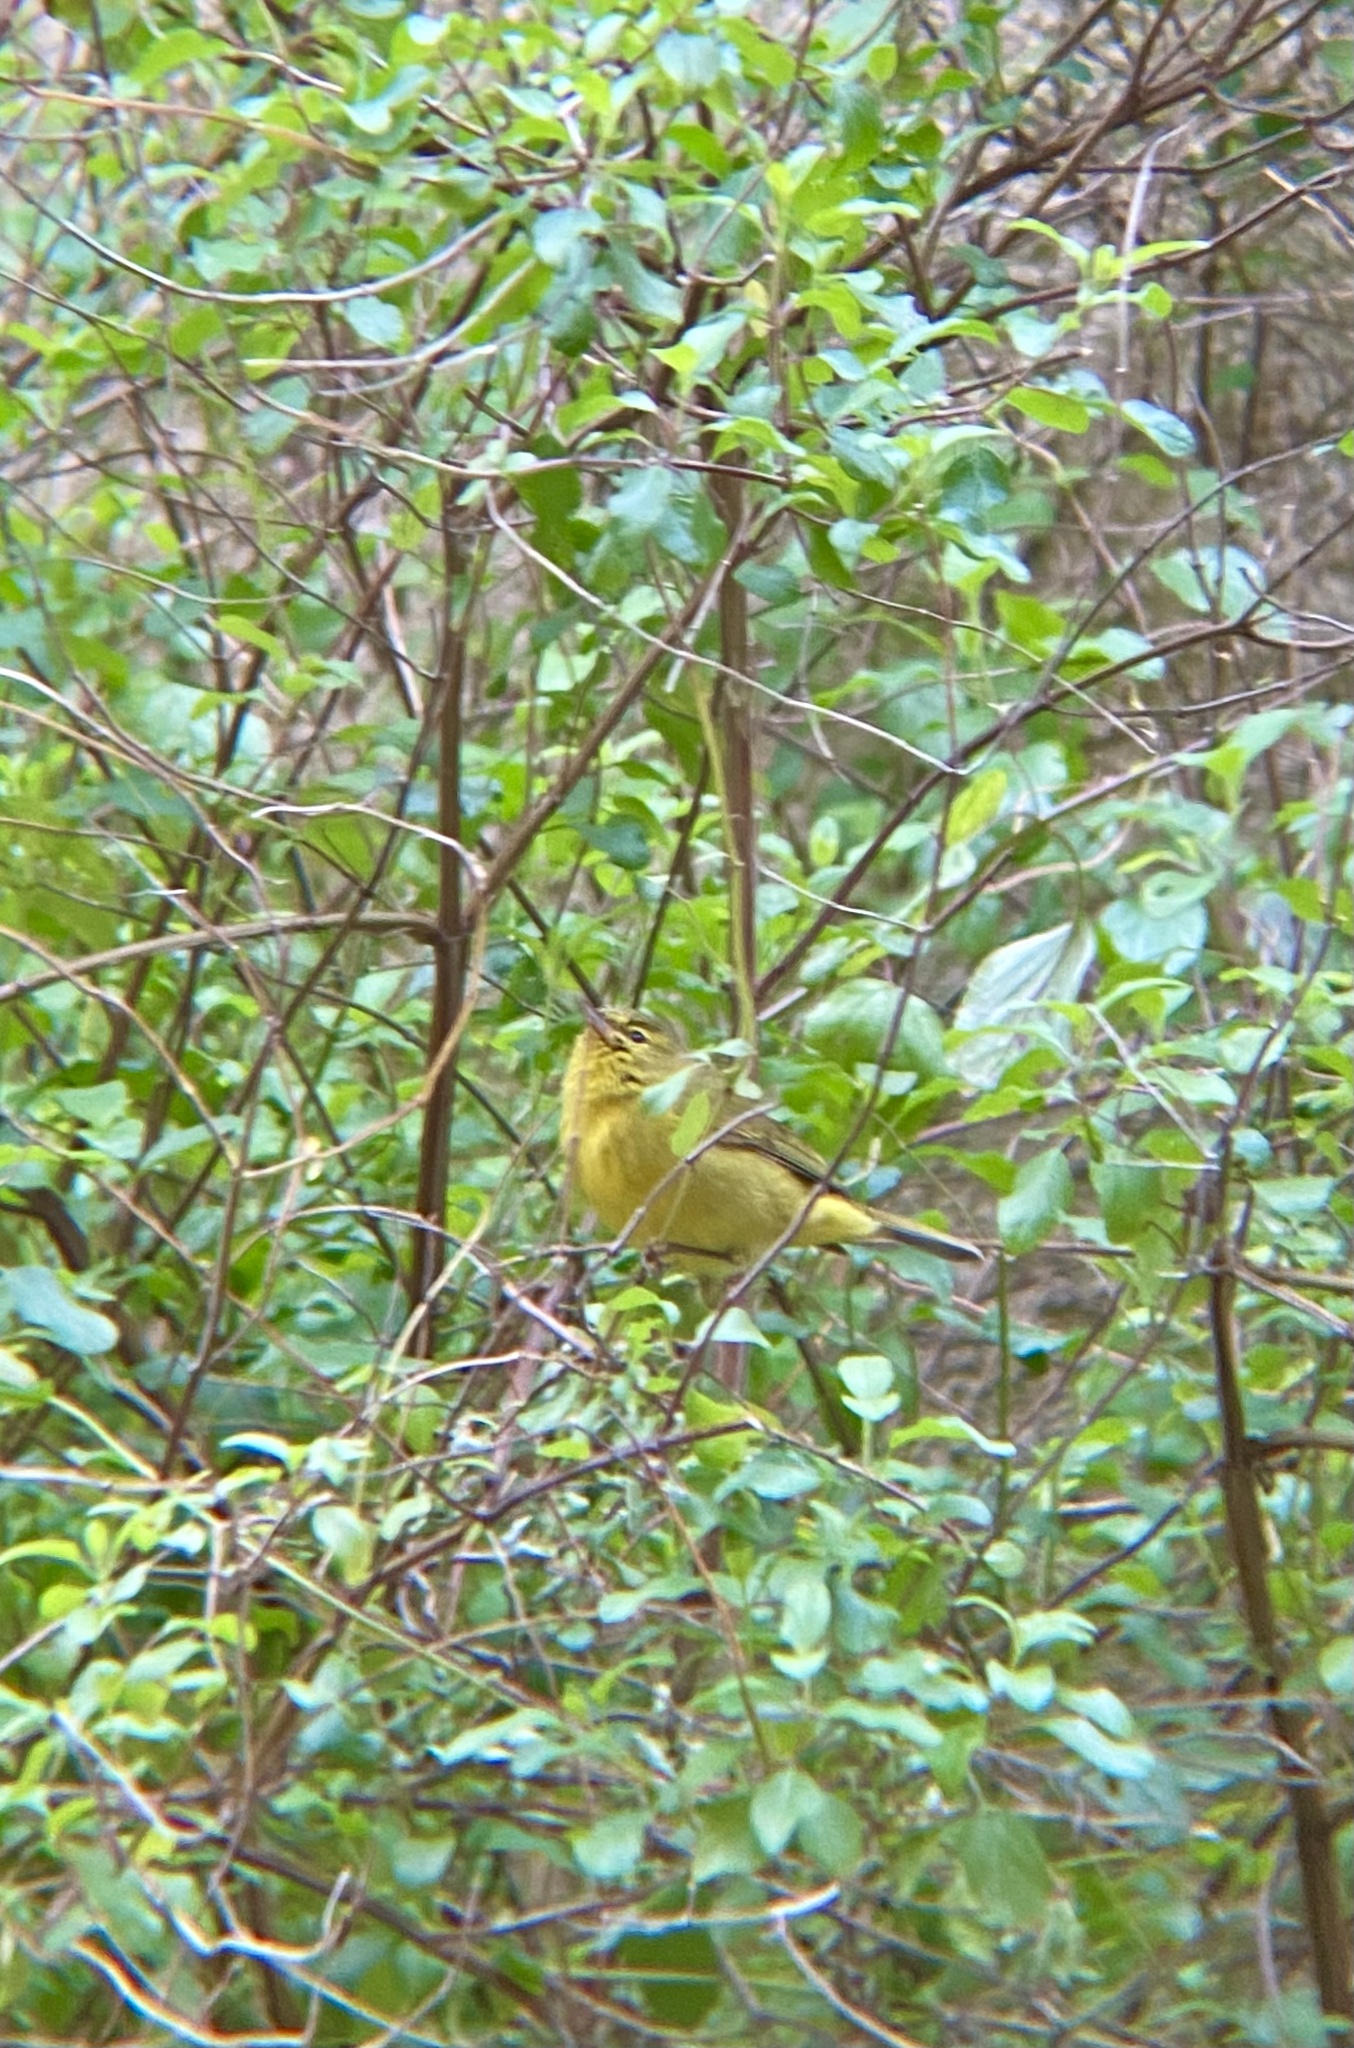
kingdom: Animalia
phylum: Chordata
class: Aves
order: Passeriformes
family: Parulidae
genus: Leiothlypis
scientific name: Leiothlypis celata
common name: Orange-crowned warbler
